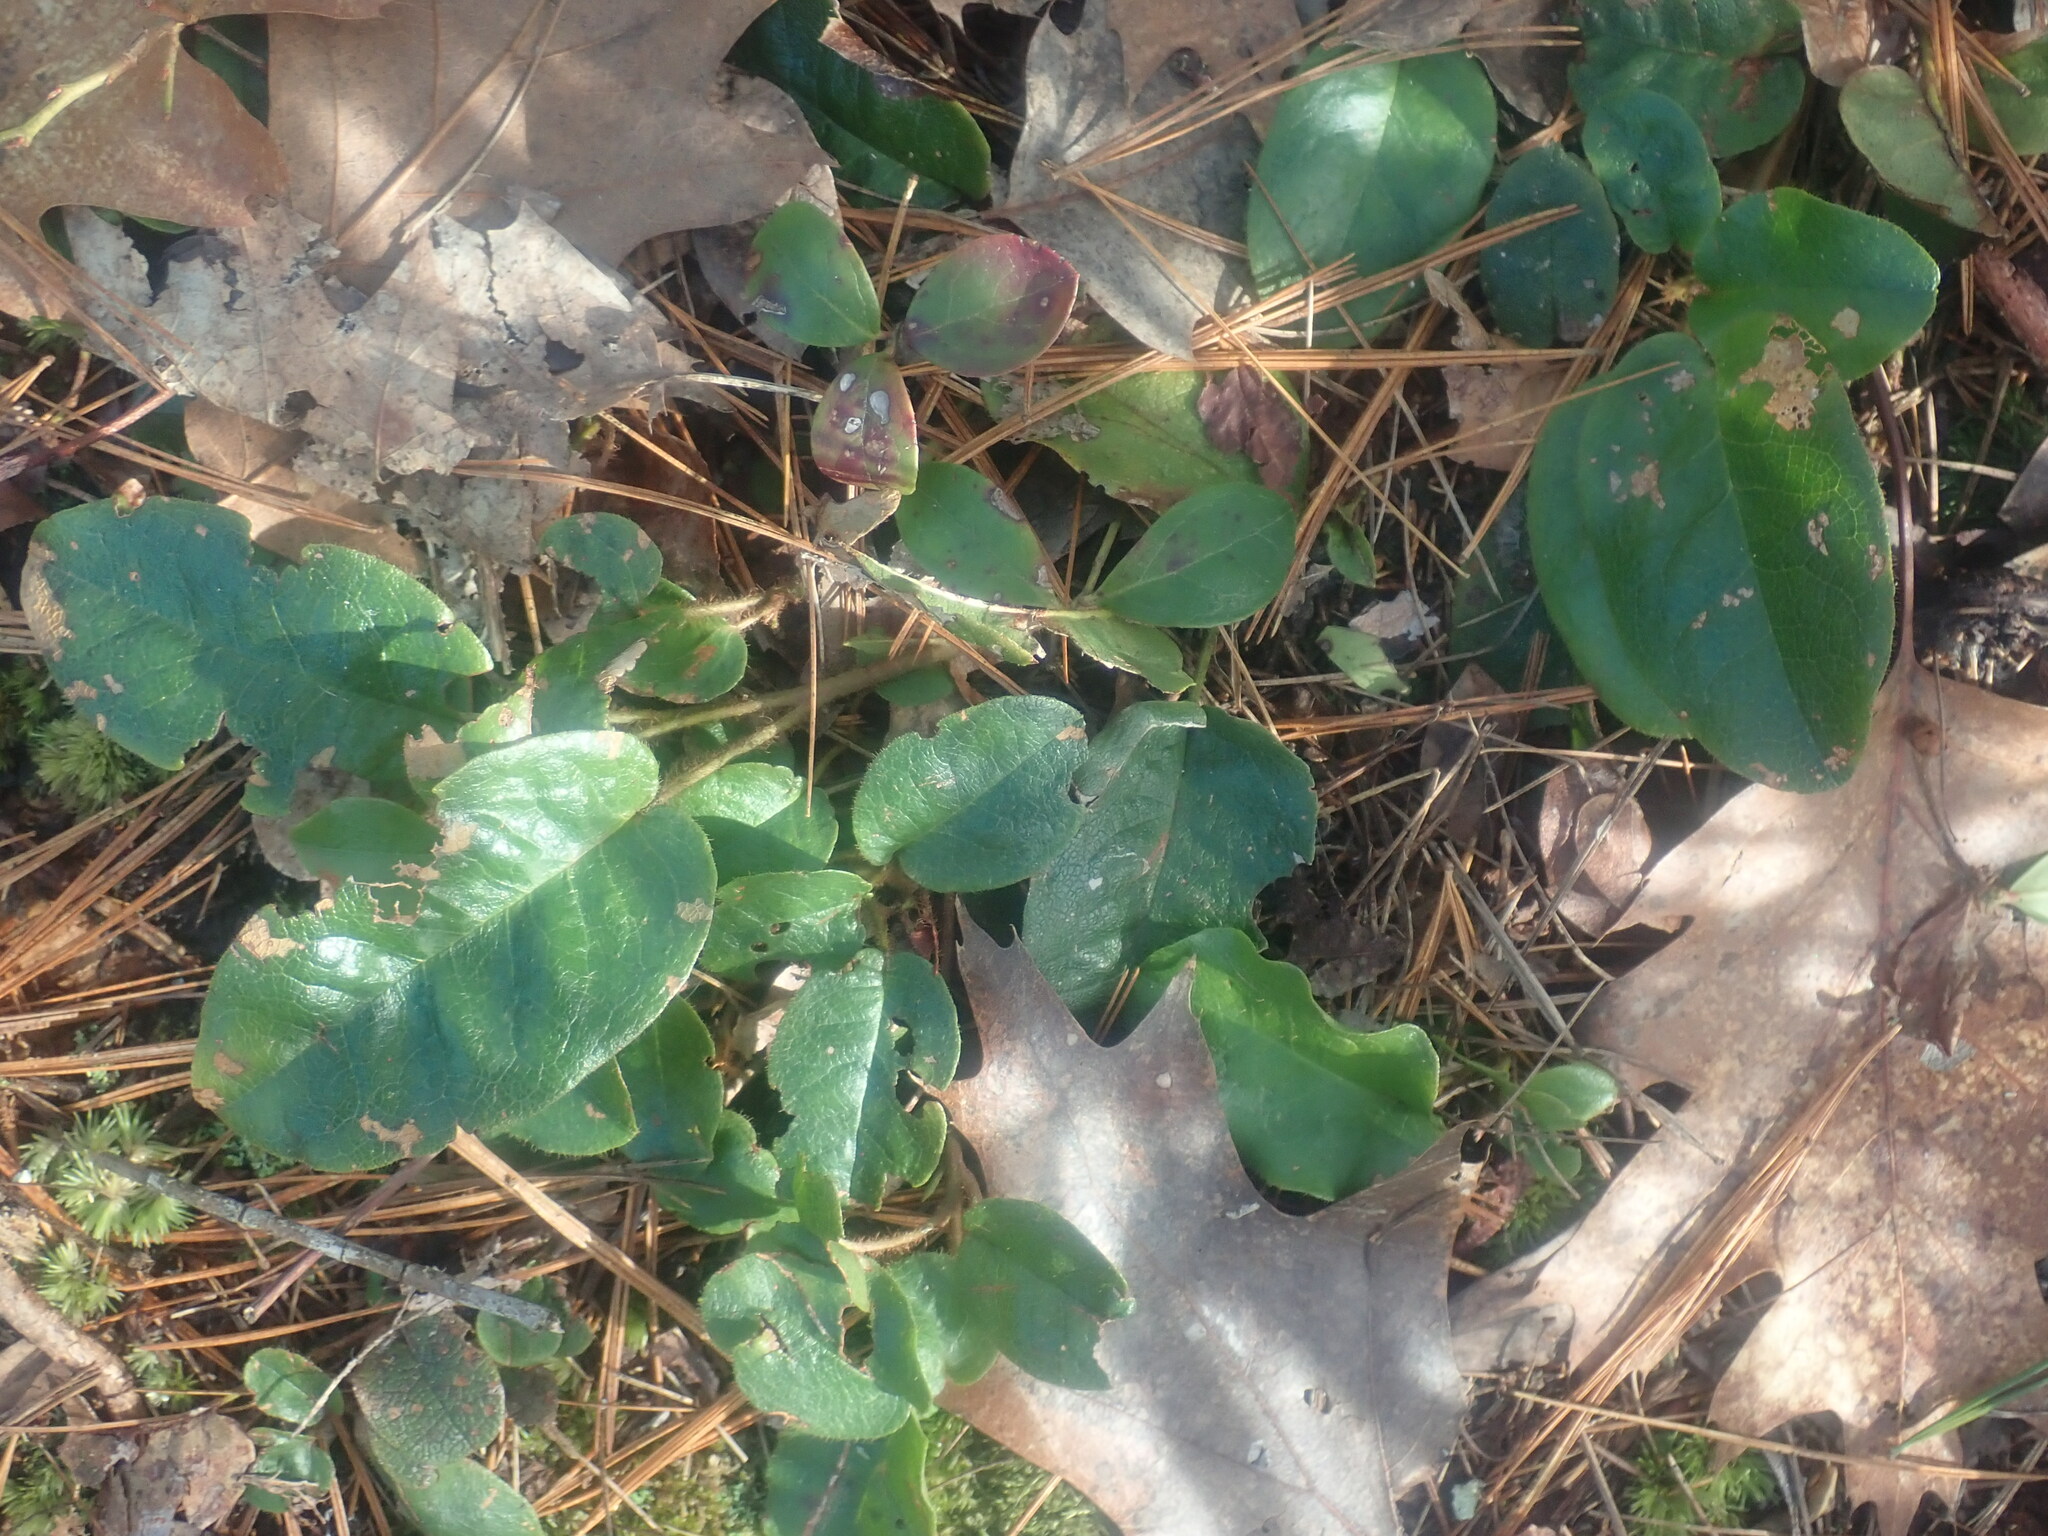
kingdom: Plantae
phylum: Tracheophyta
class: Magnoliopsida
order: Ericales
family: Ericaceae
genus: Epigaea
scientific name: Epigaea repens
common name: Gravelroot
